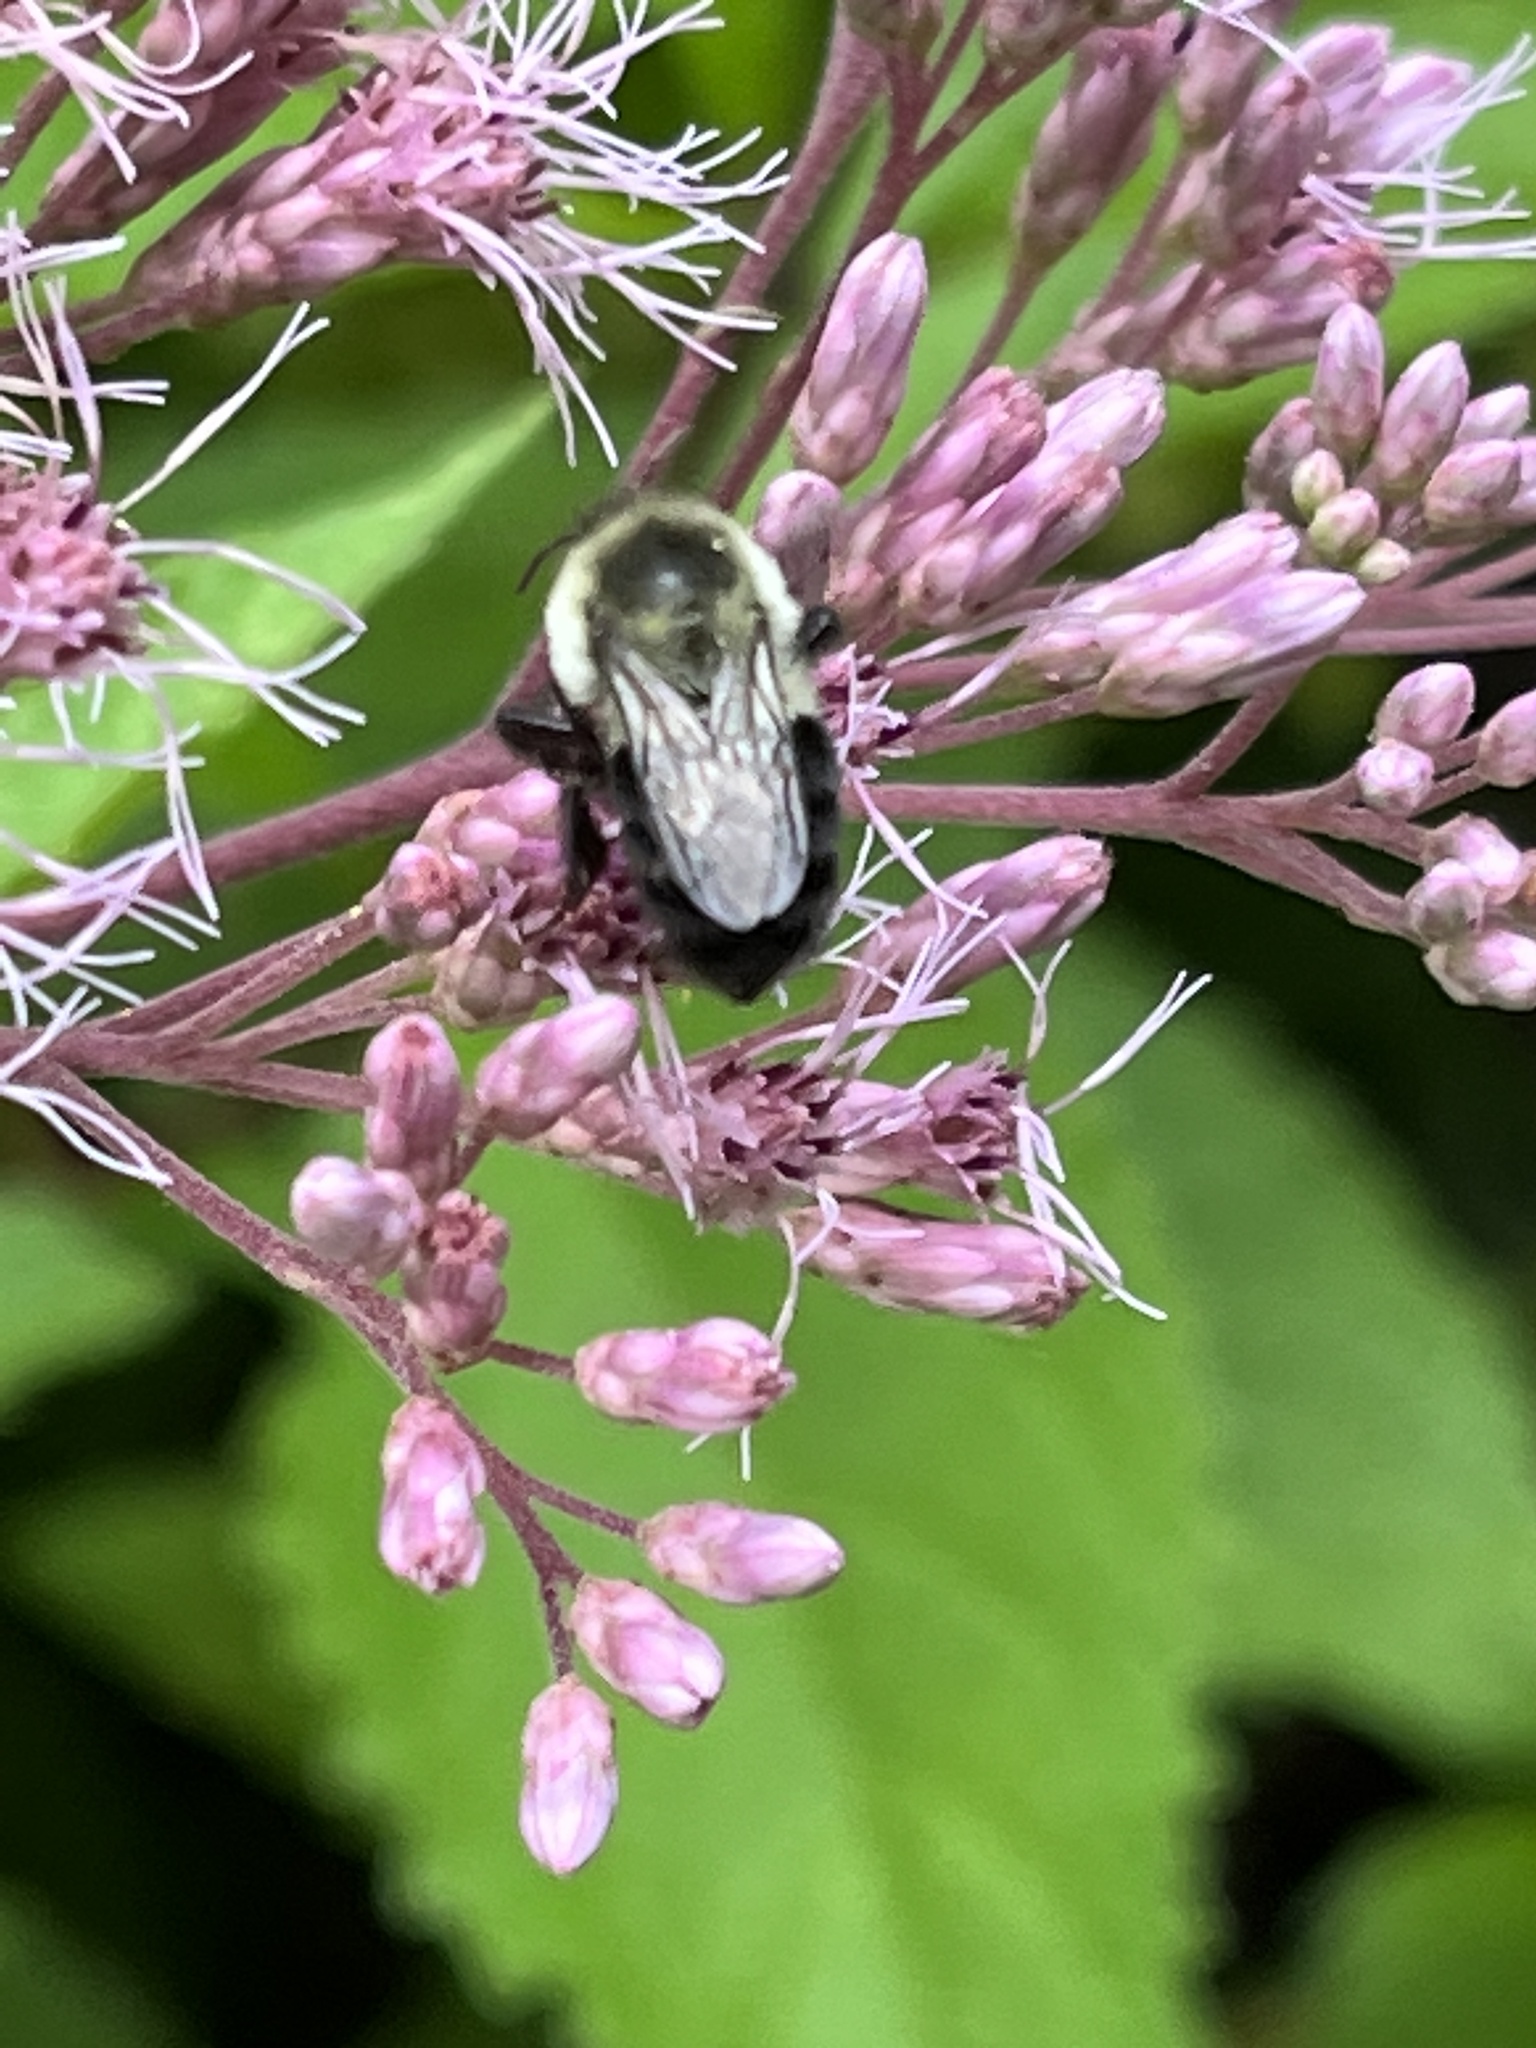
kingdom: Animalia
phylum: Arthropoda
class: Insecta
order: Hymenoptera
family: Apidae
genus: Bombus
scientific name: Bombus impatiens
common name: Common eastern bumble bee
